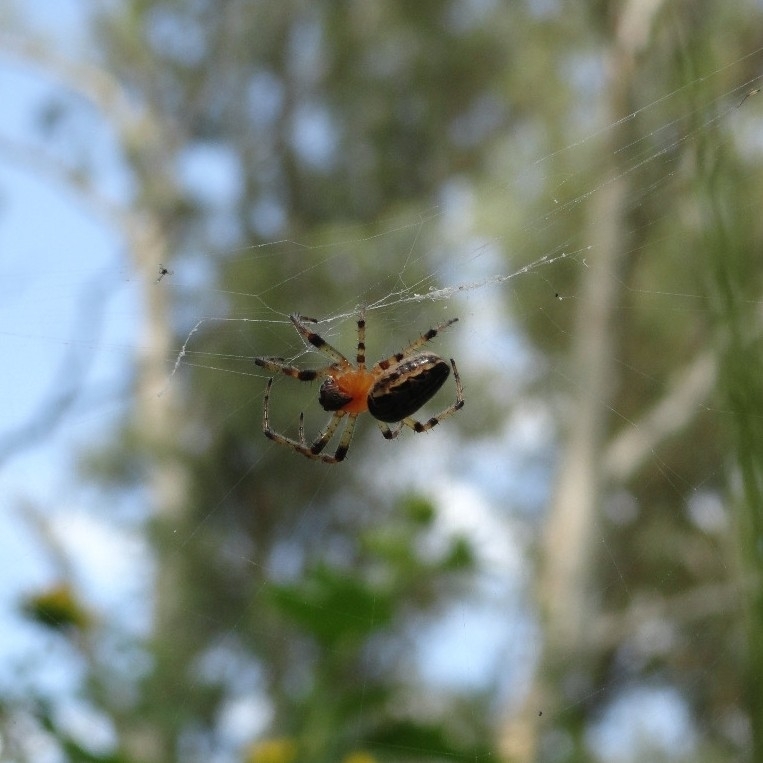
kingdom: Animalia
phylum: Arthropoda
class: Arachnida
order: Araneae
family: Araneidae
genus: Alpaida
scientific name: Alpaida veniliae
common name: Orb weavers
